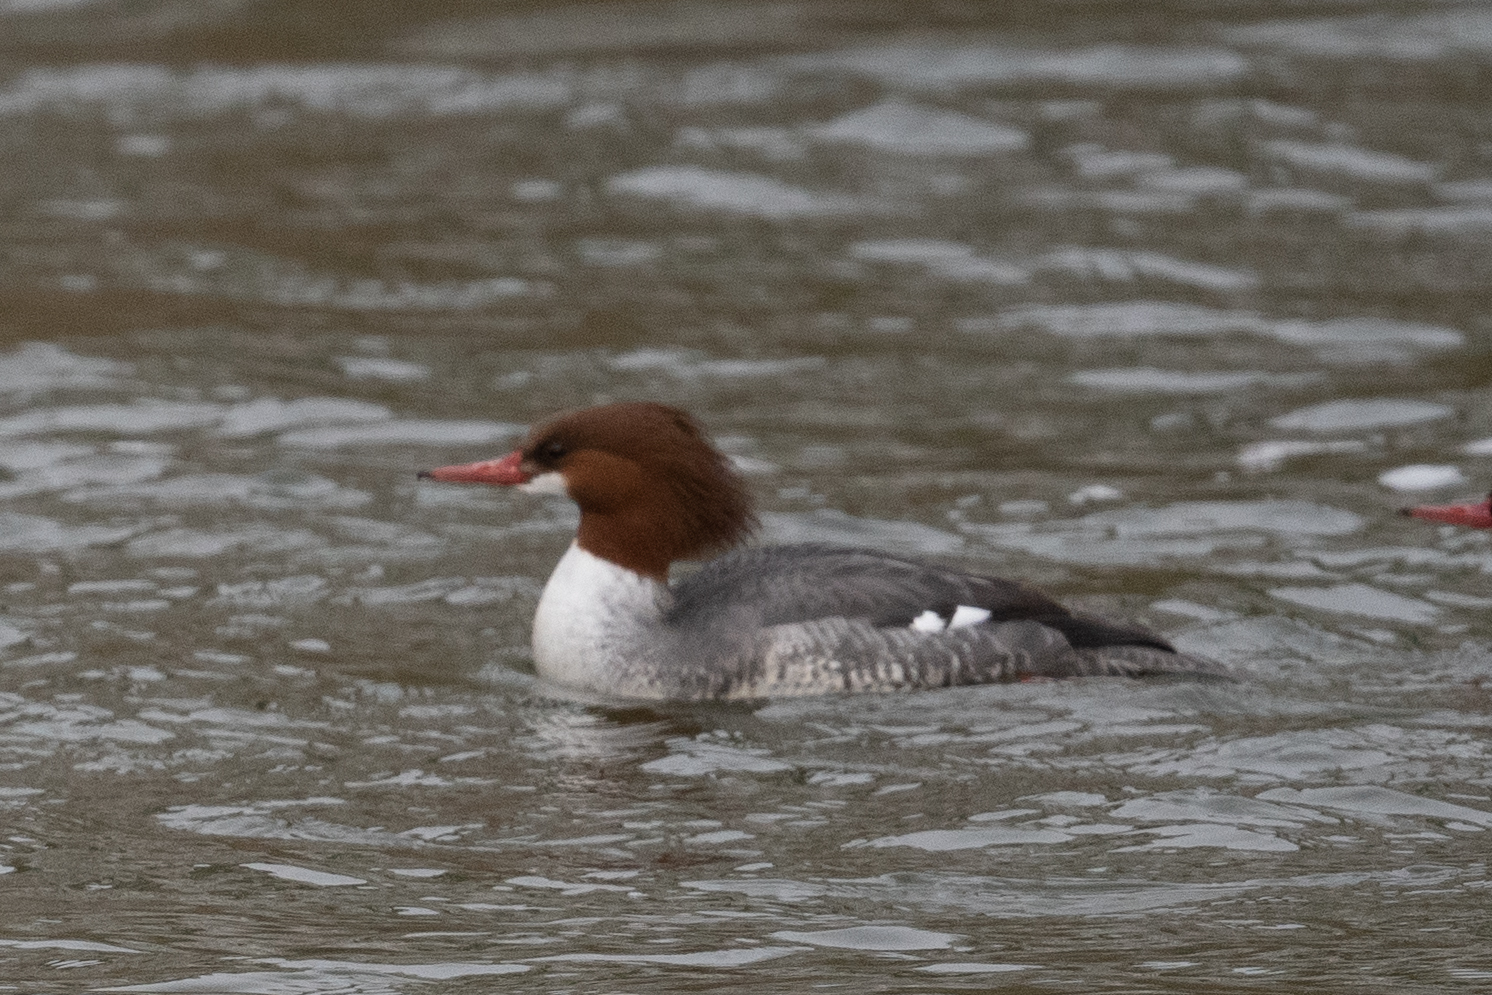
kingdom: Animalia
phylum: Chordata
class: Aves
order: Anseriformes
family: Anatidae
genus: Mergus
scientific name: Mergus merganser
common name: Common merganser
